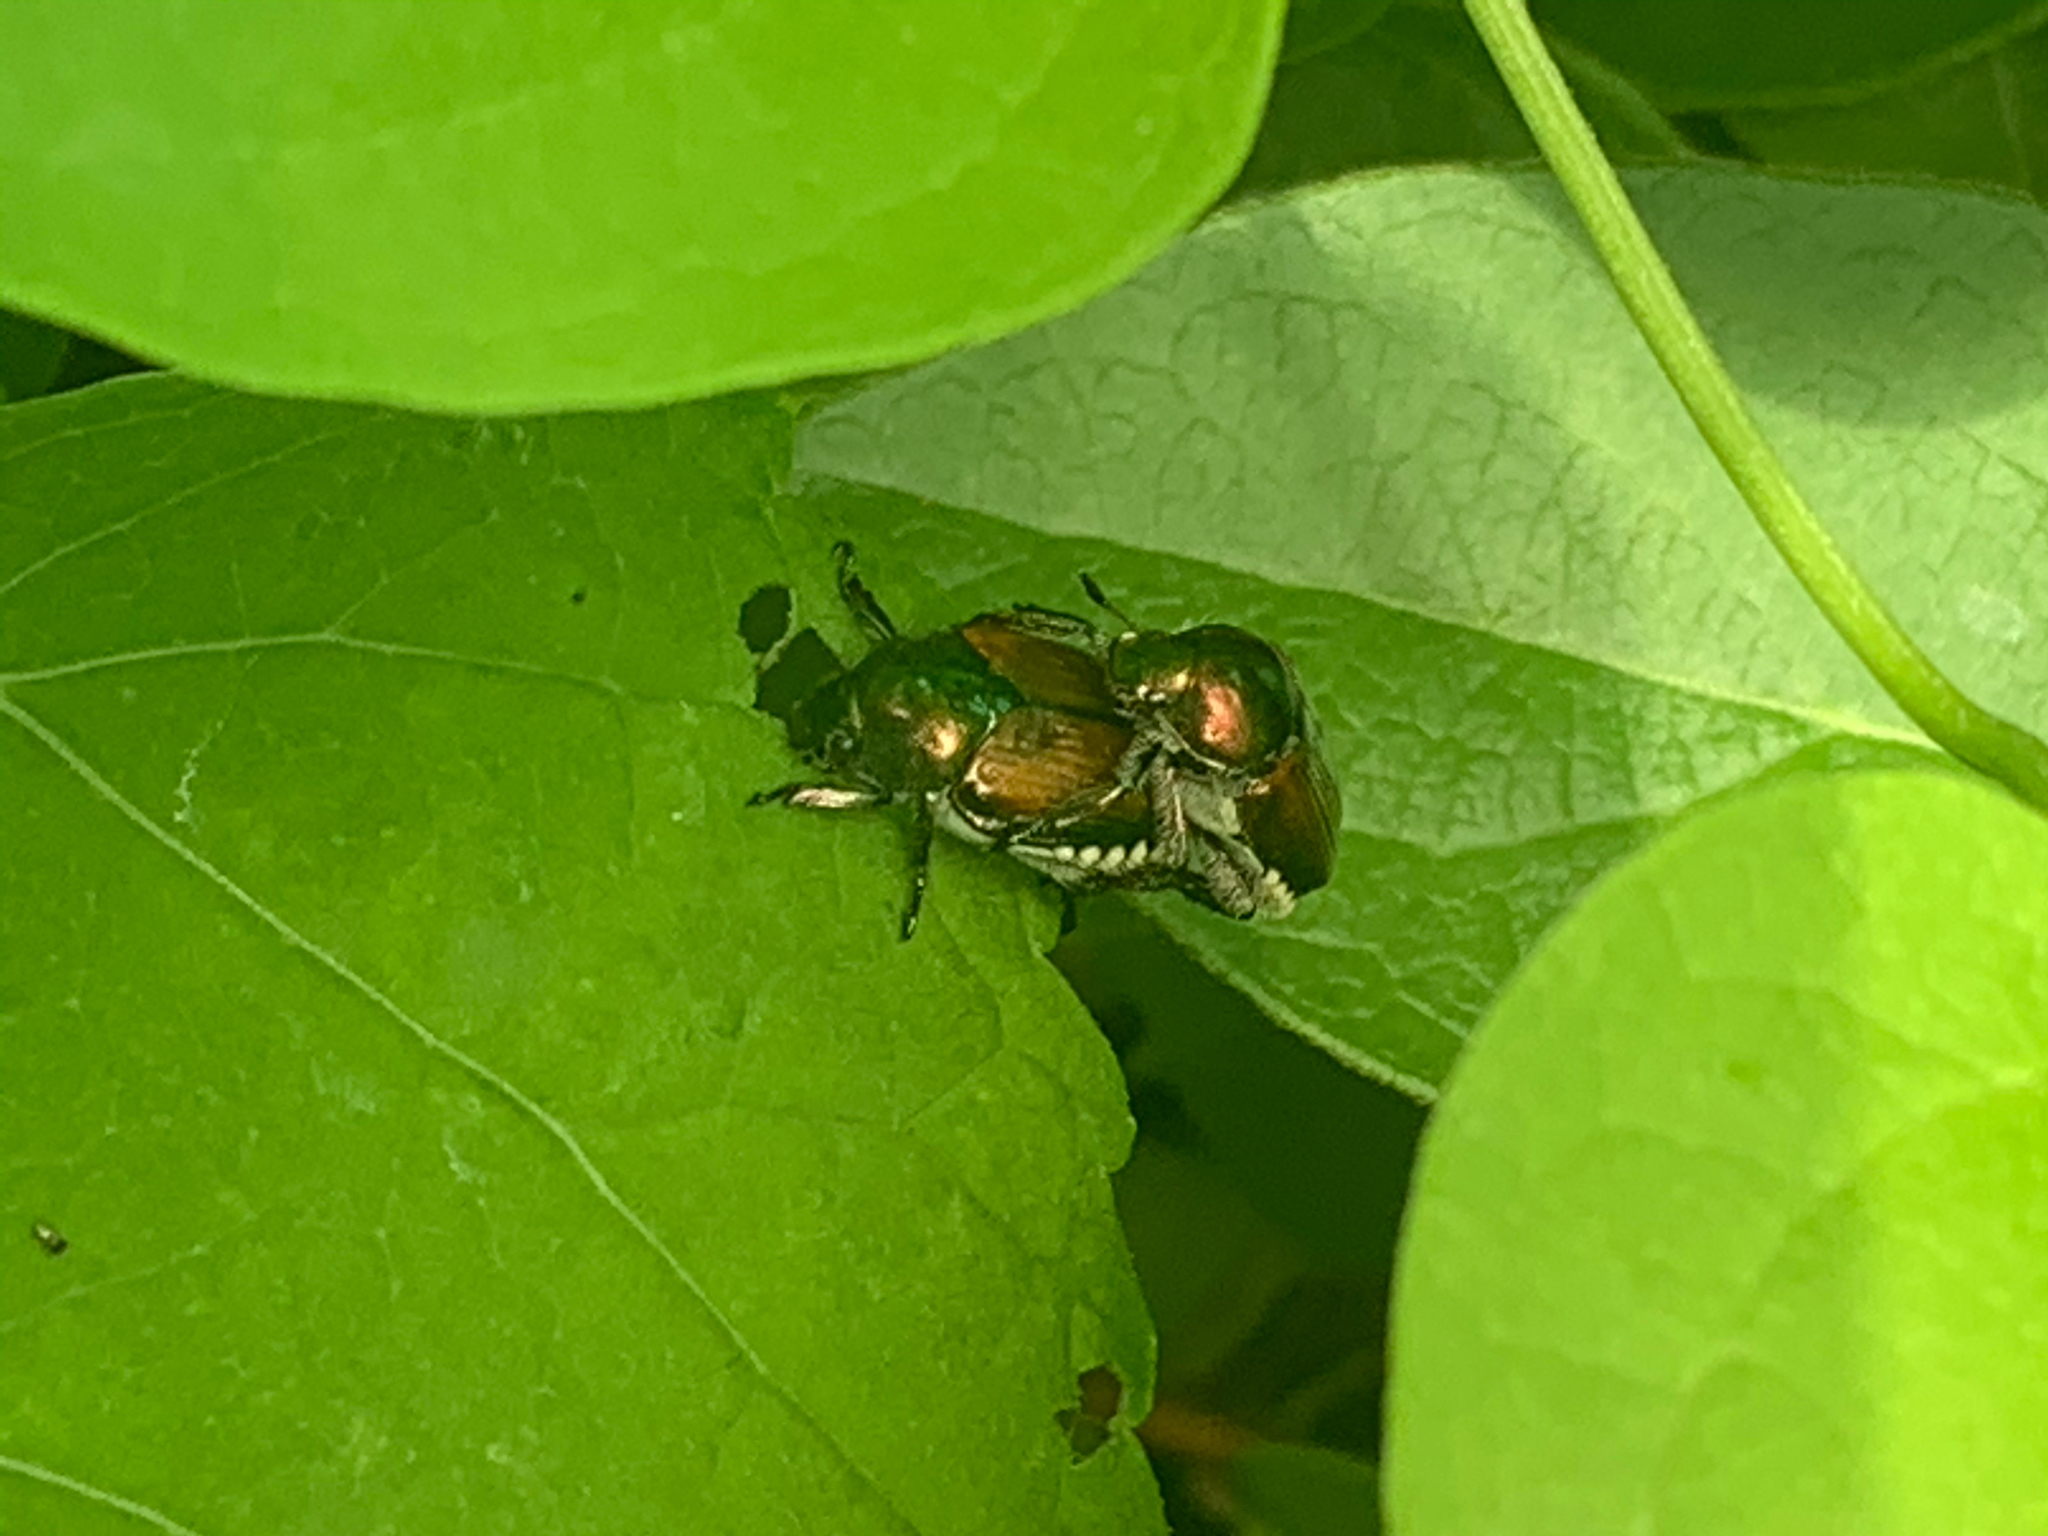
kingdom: Animalia
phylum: Arthropoda
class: Insecta
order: Coleoptera
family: Scarabaeidae
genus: Popillia
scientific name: Popillia japonica
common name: Japanese beetle
